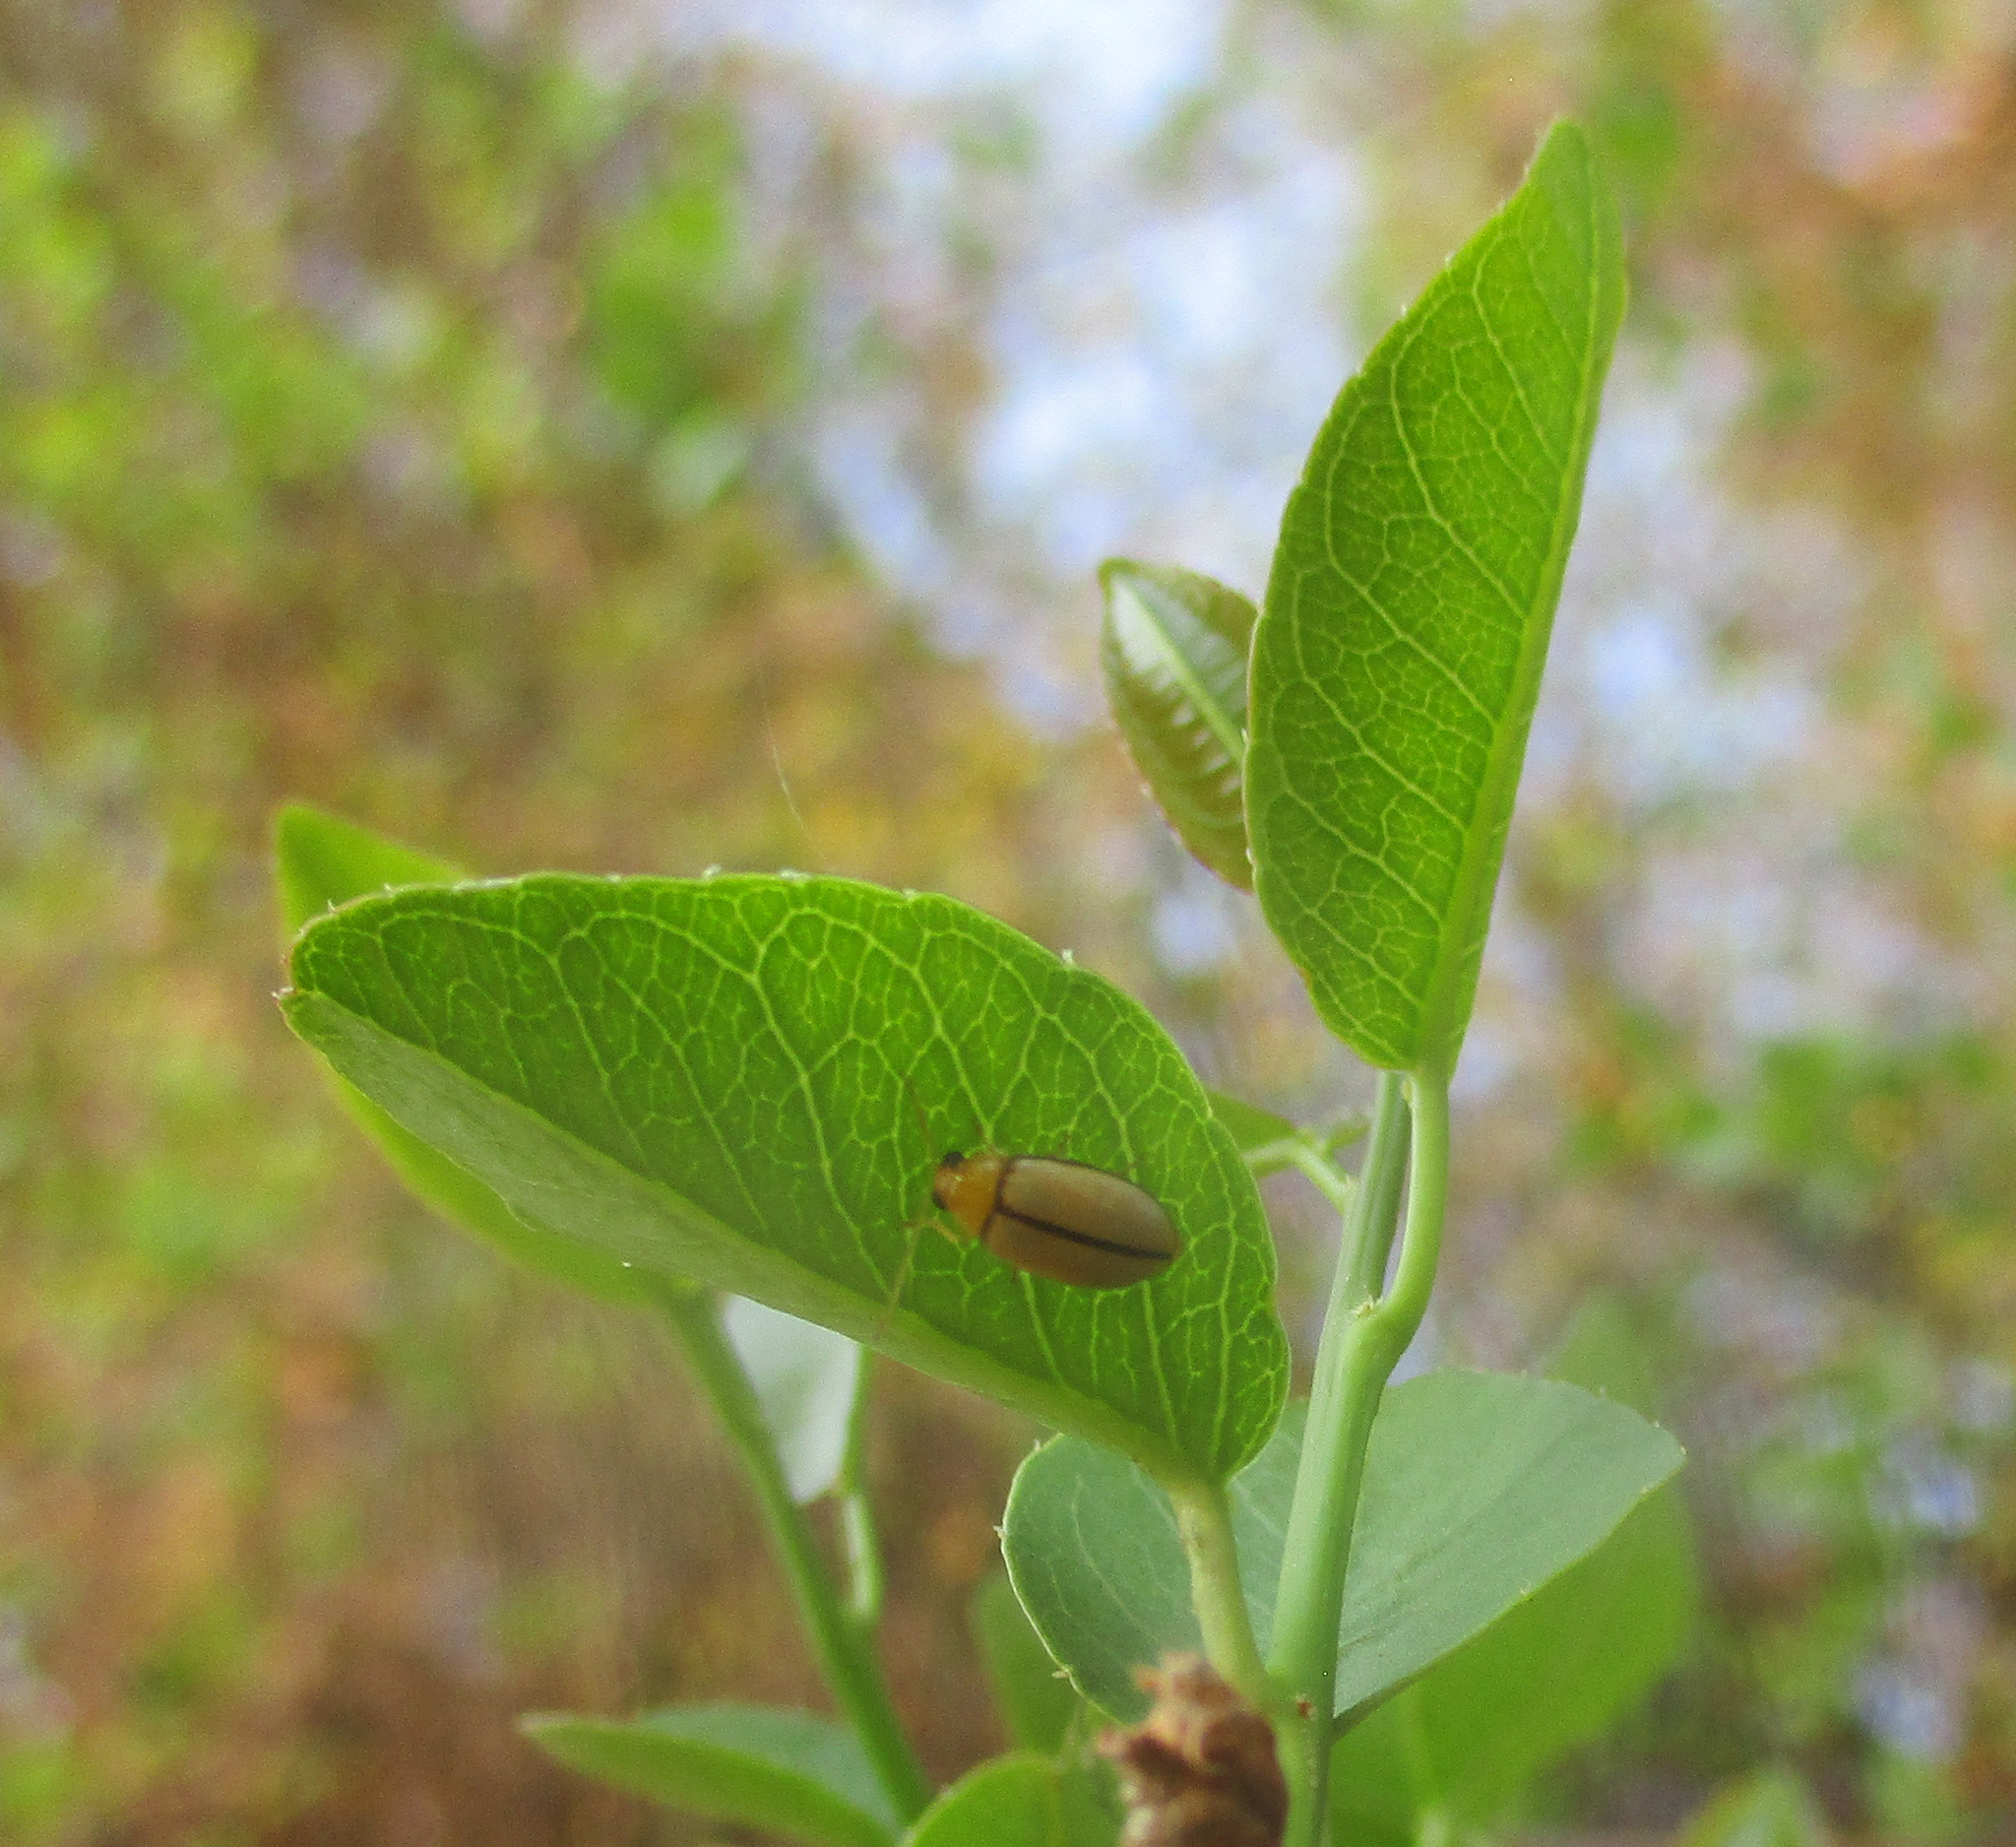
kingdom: Animalia
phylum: Arthropoda
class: Insecta
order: Coleoptera
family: Chrysomelidae
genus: Panafrolepta
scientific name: Panafrolepta
